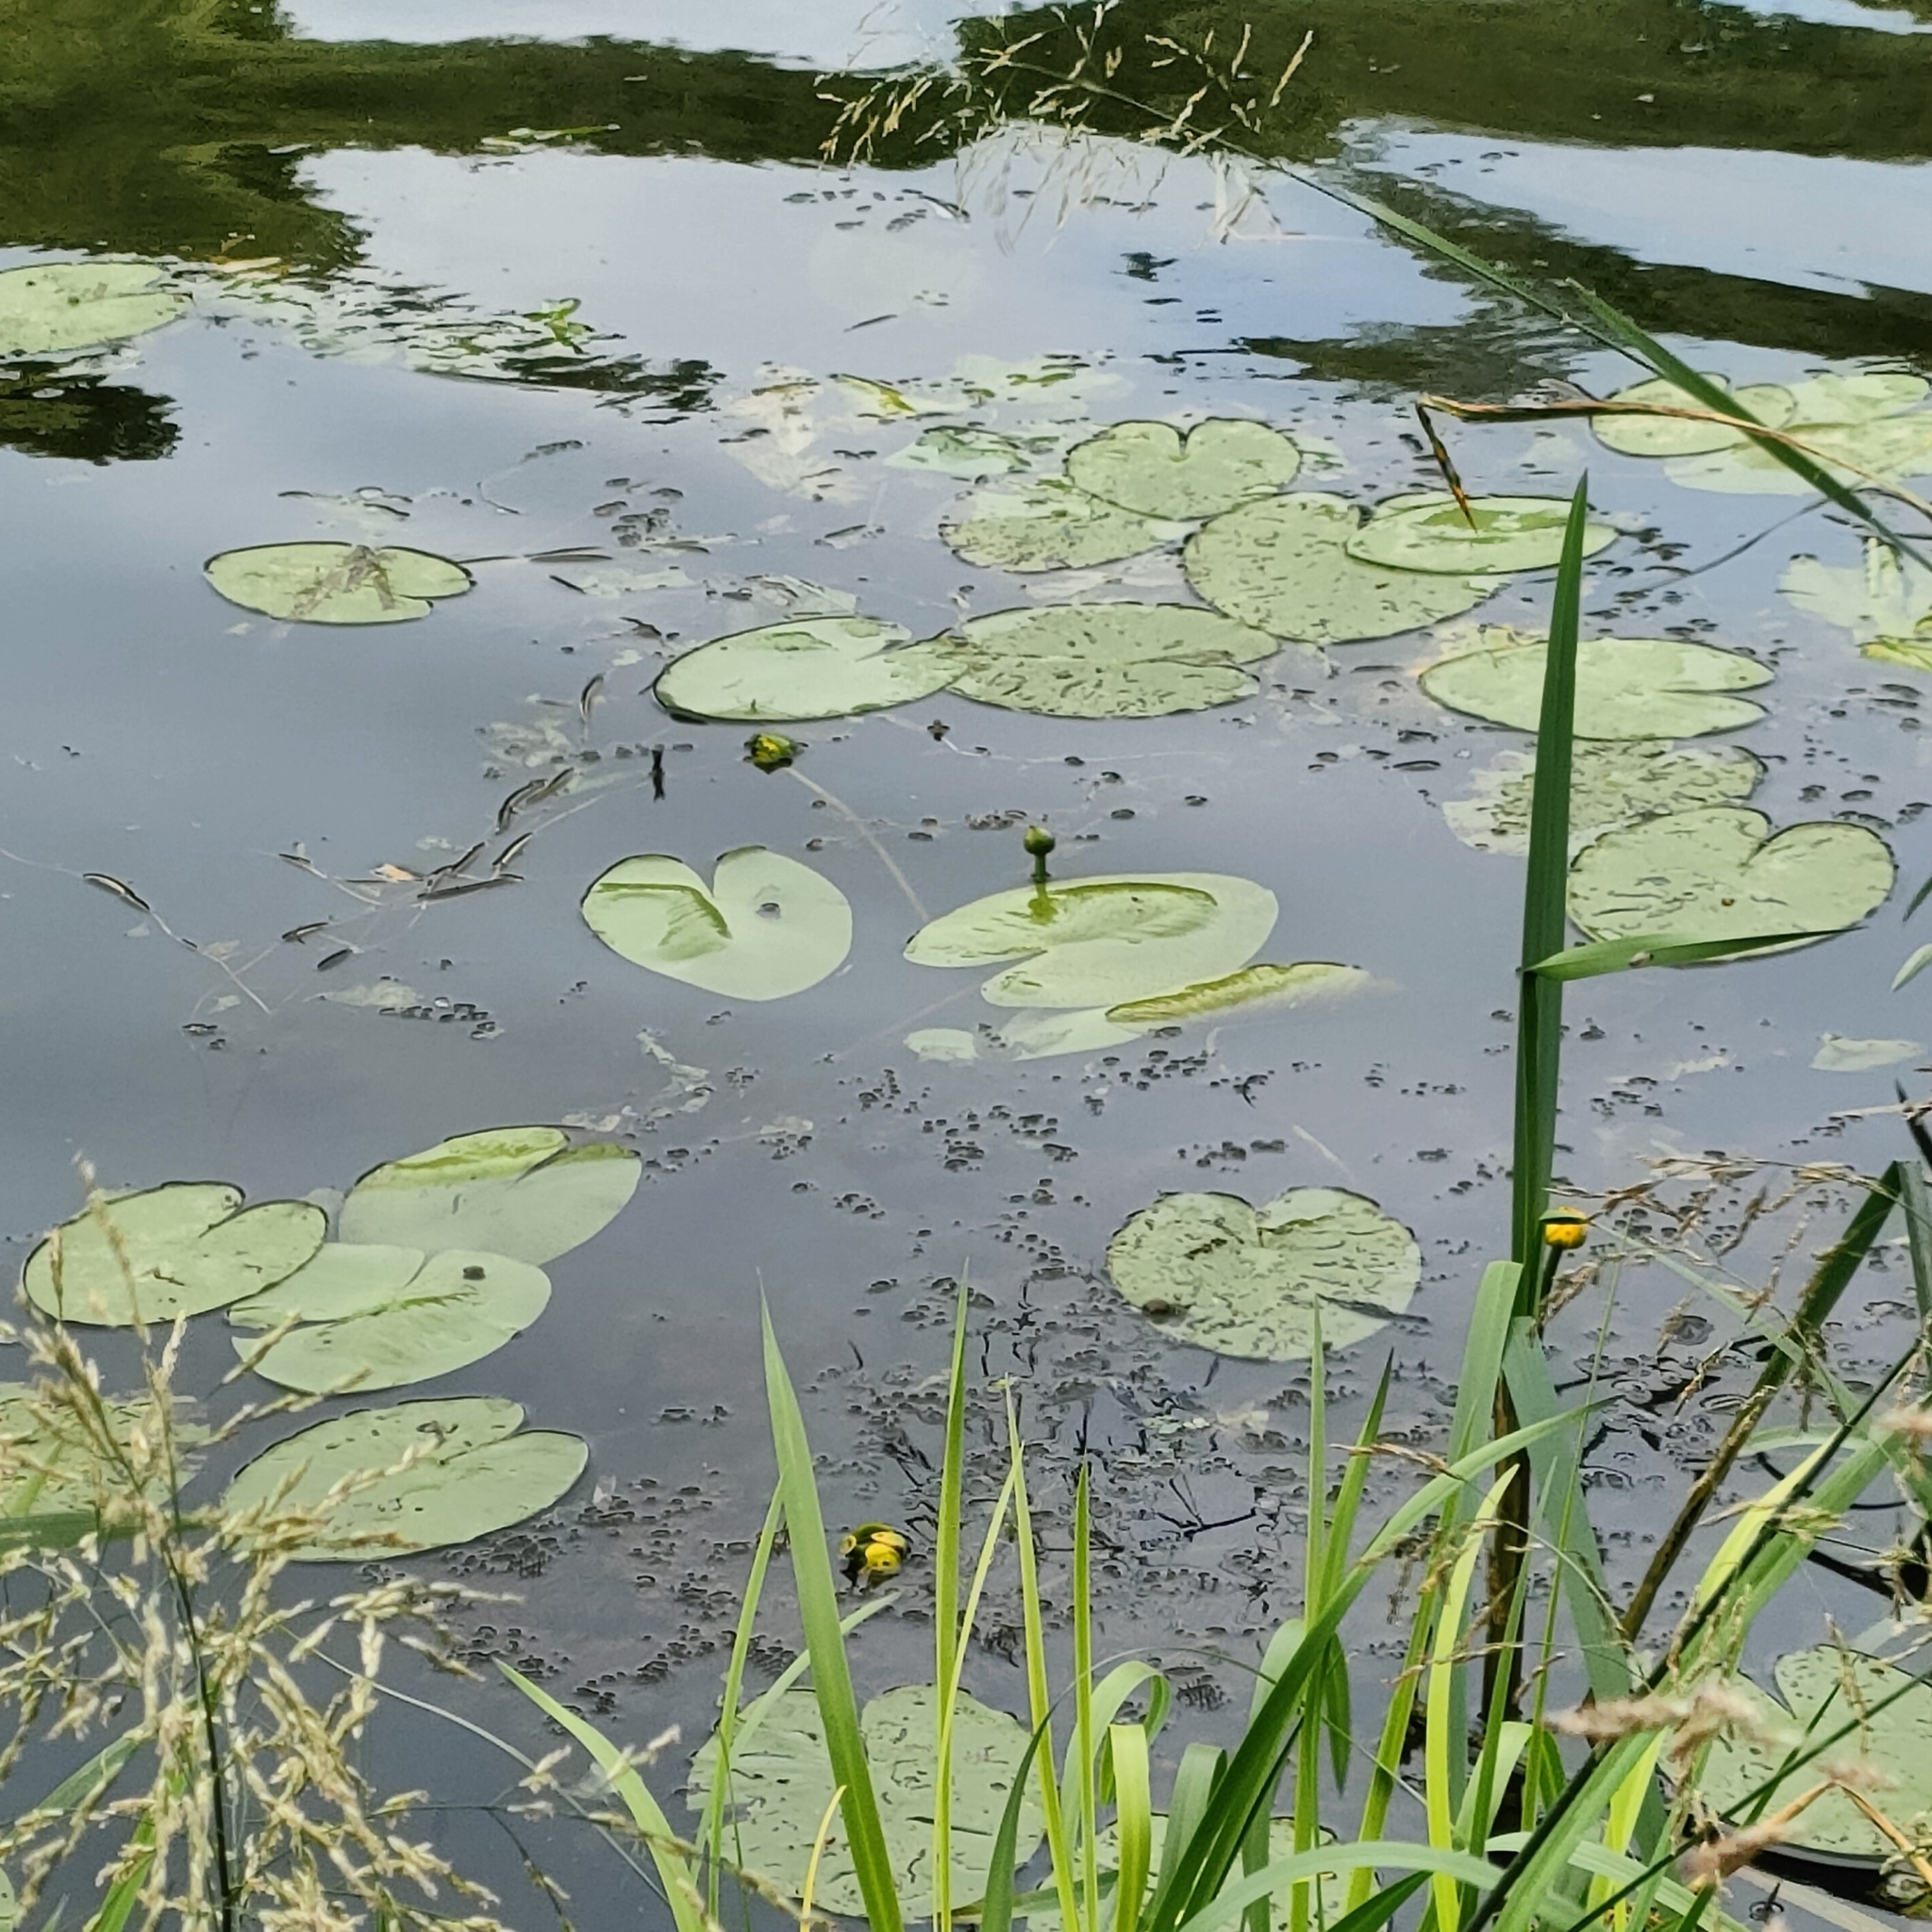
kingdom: Plantae
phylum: Tracheophyta
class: Magnoliopsida
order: Nymphaeales
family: Nymphaeaceae
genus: Nuphar
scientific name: Nuphar lutea
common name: Yellow water-lily
